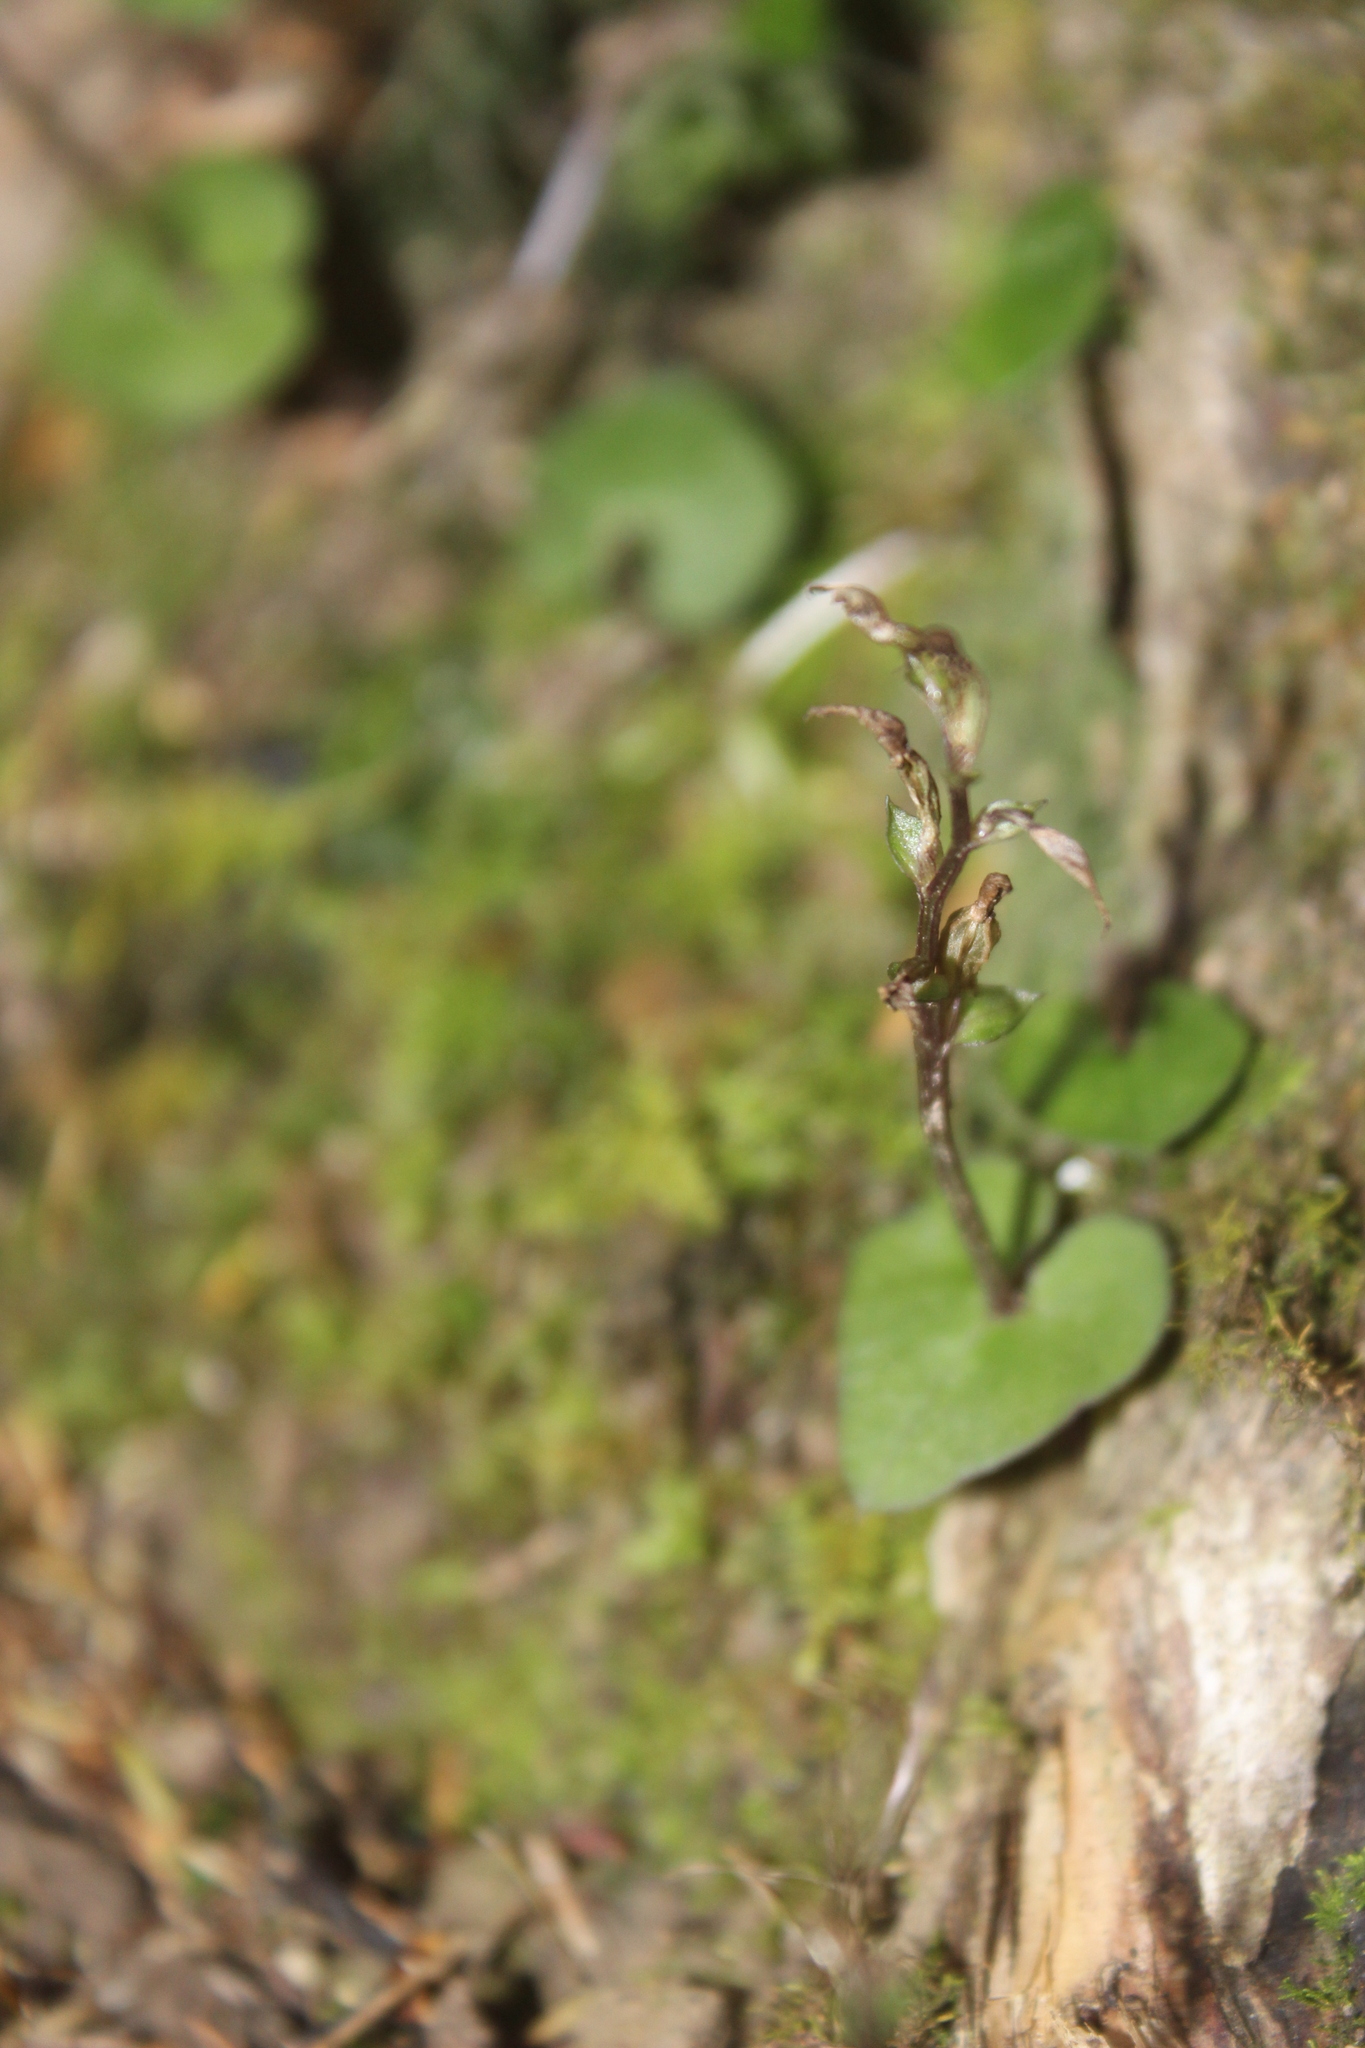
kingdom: Plantae
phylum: Tracheophyta
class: Liliopsida
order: Asparagales
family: Orchidaceae
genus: Acianthus
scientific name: Acianthus sinclairii
